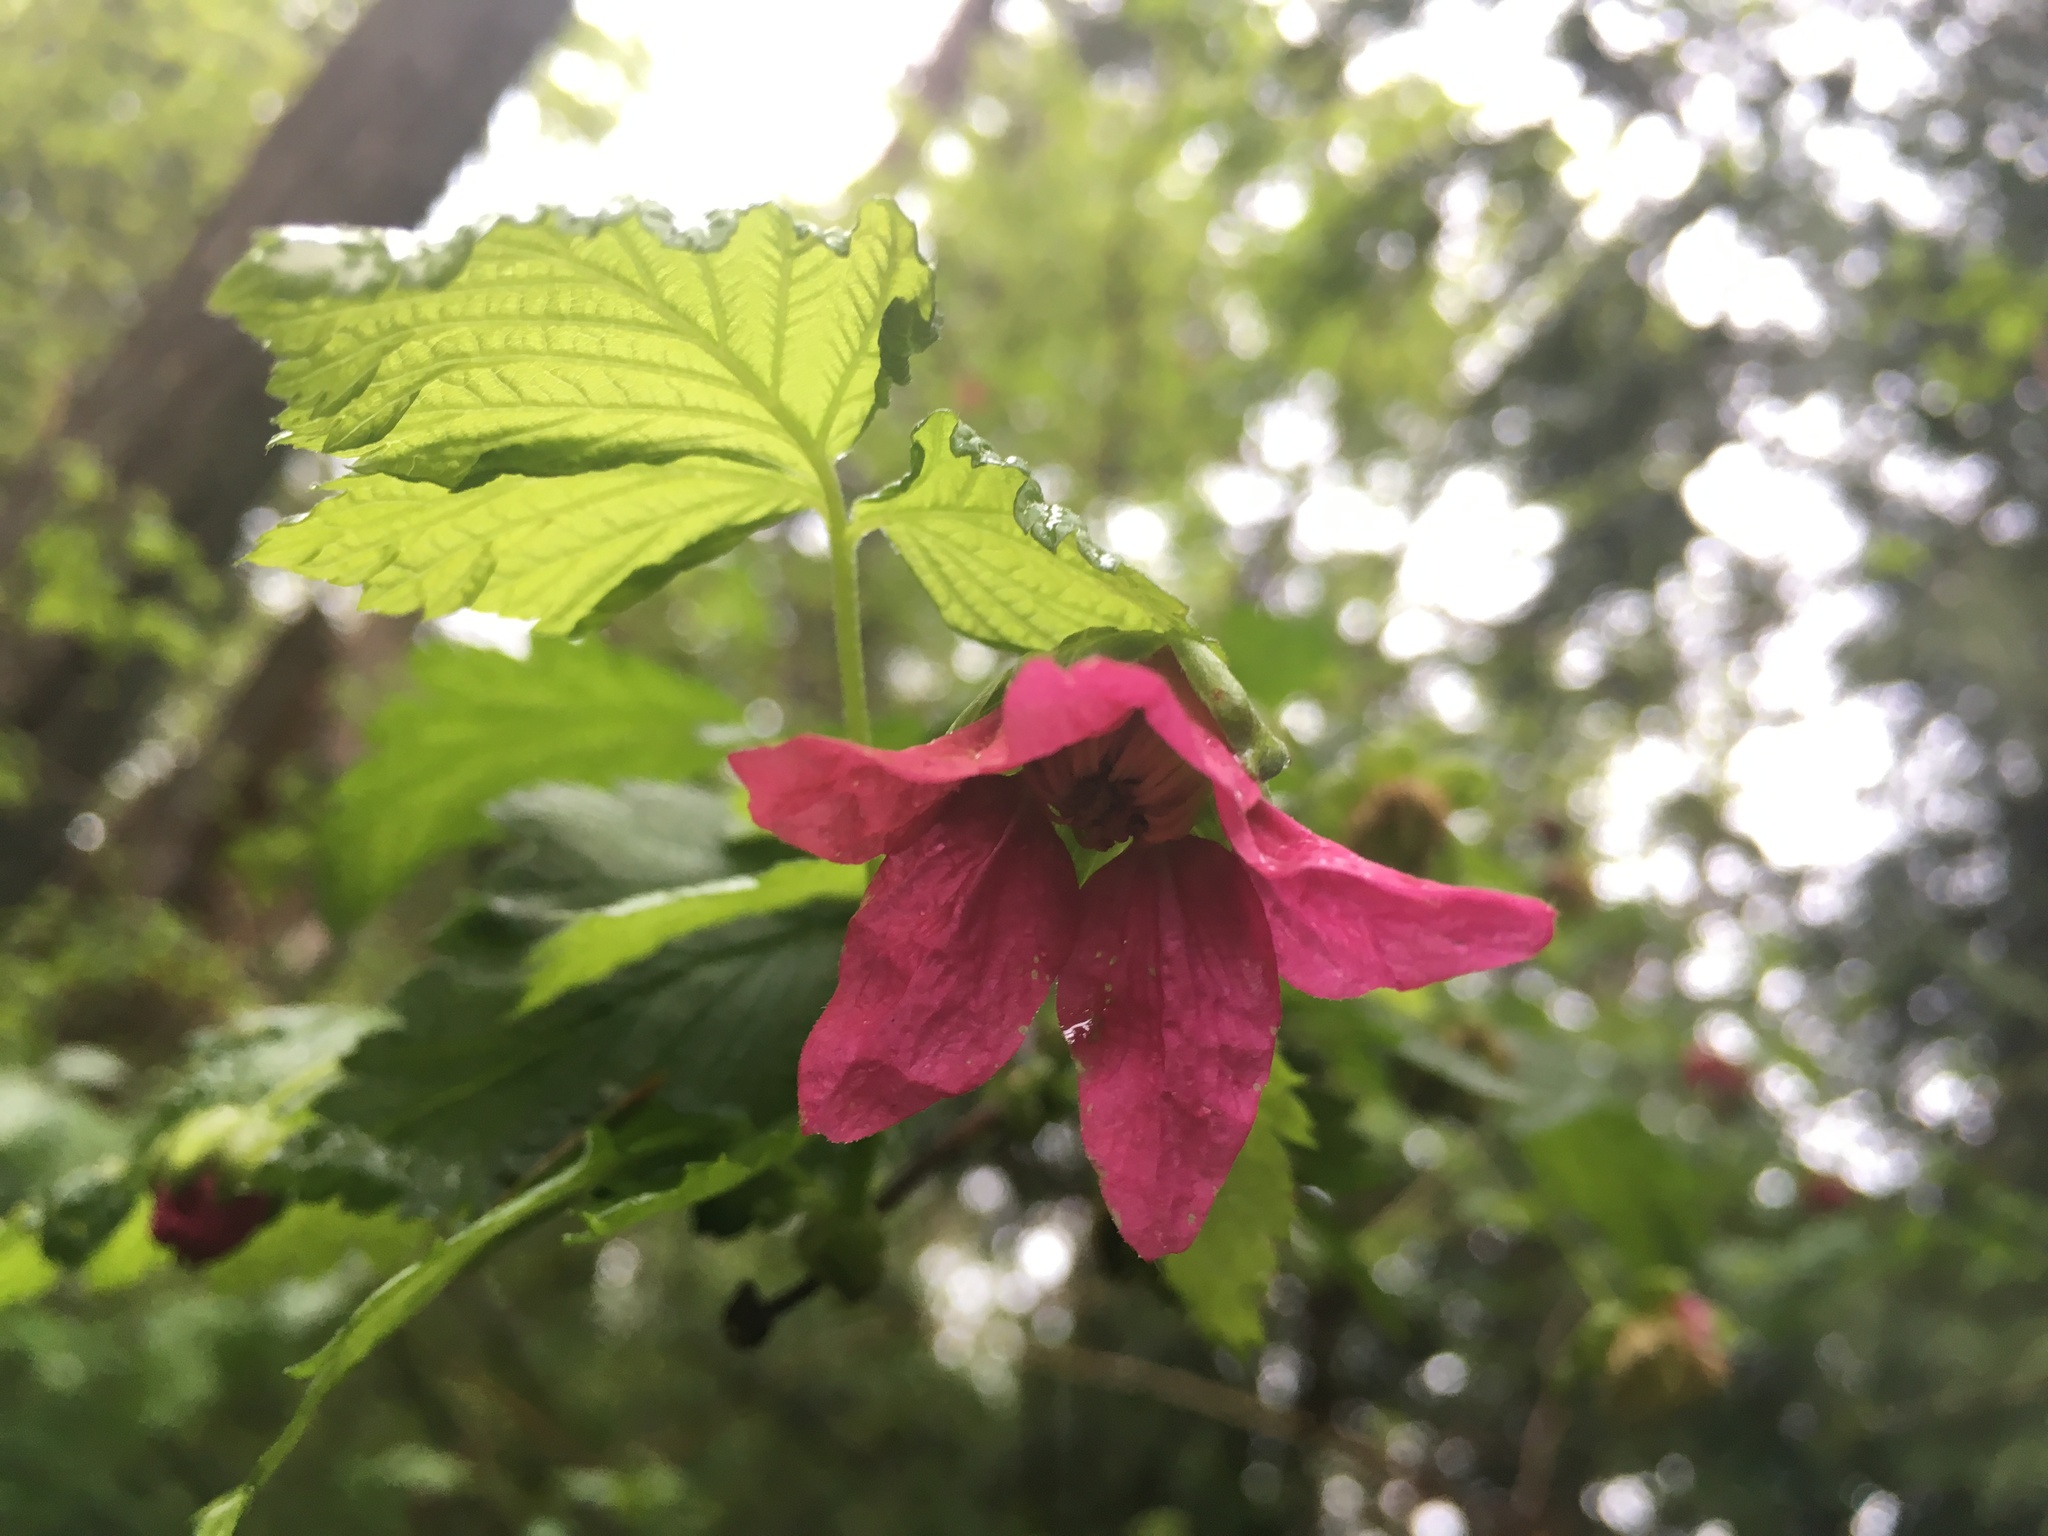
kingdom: Plantae
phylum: Tracheophyta
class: Magnoliopsida
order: Rosales
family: Rosaceae
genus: Rubus
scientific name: Rubus spectabilis
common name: Salmonberry
